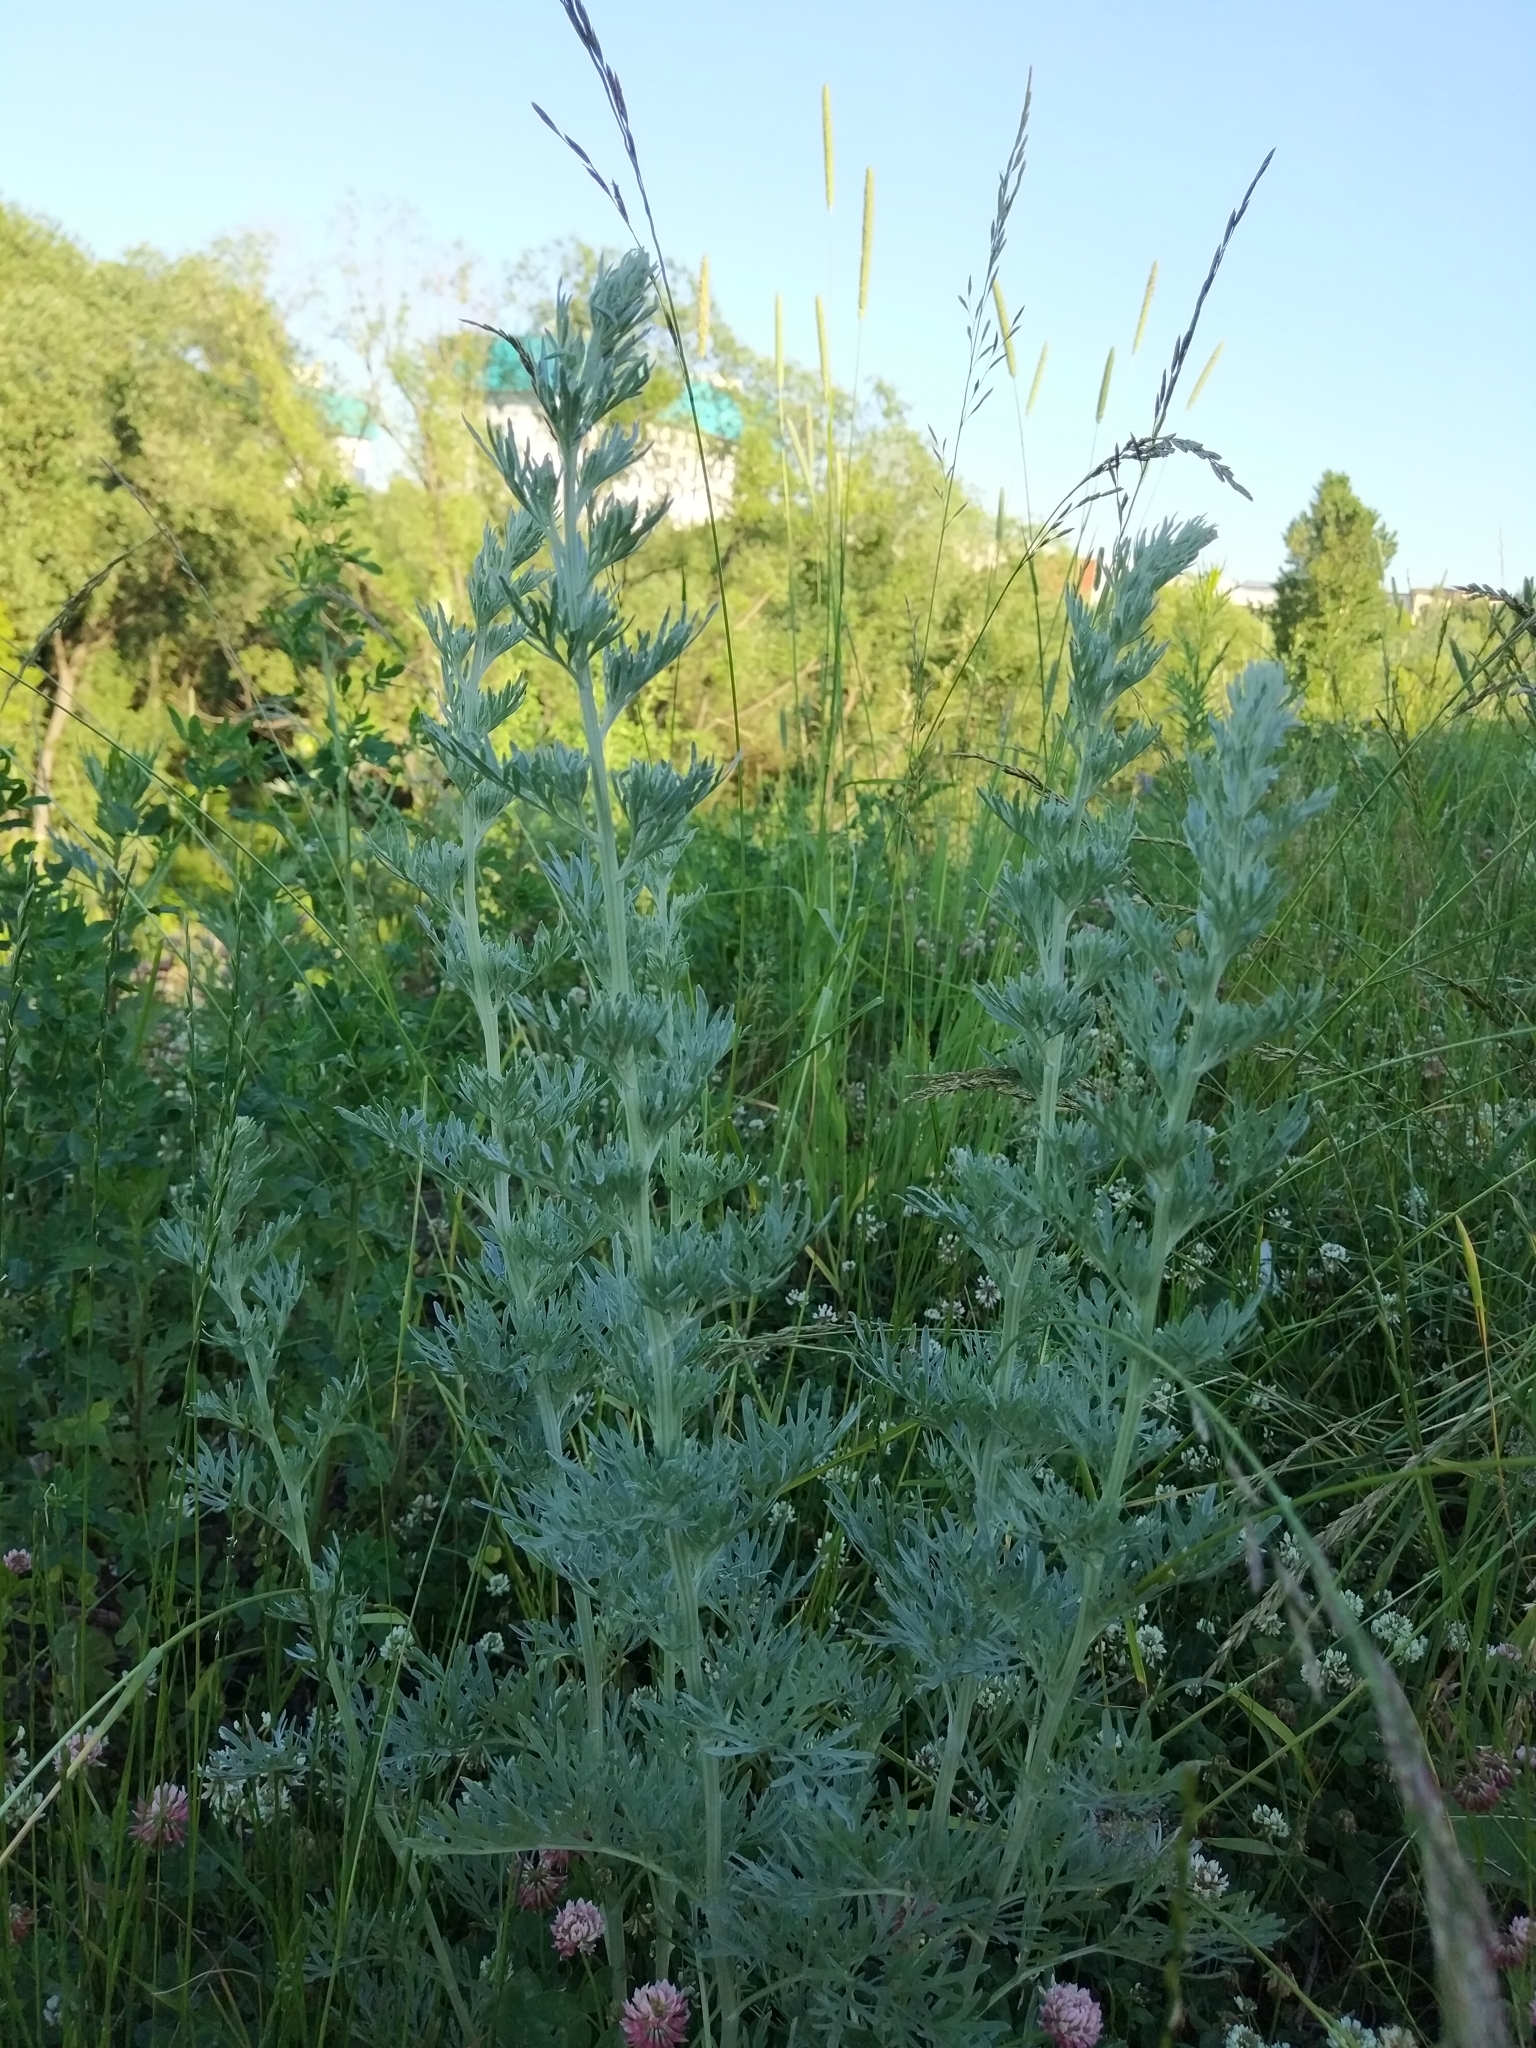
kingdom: Plantae
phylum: Tracheophyta
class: Magnoliopsida
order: Asterales
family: Asteraceae
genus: Artemisia
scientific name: Artemisia absinthium
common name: Wormwood
